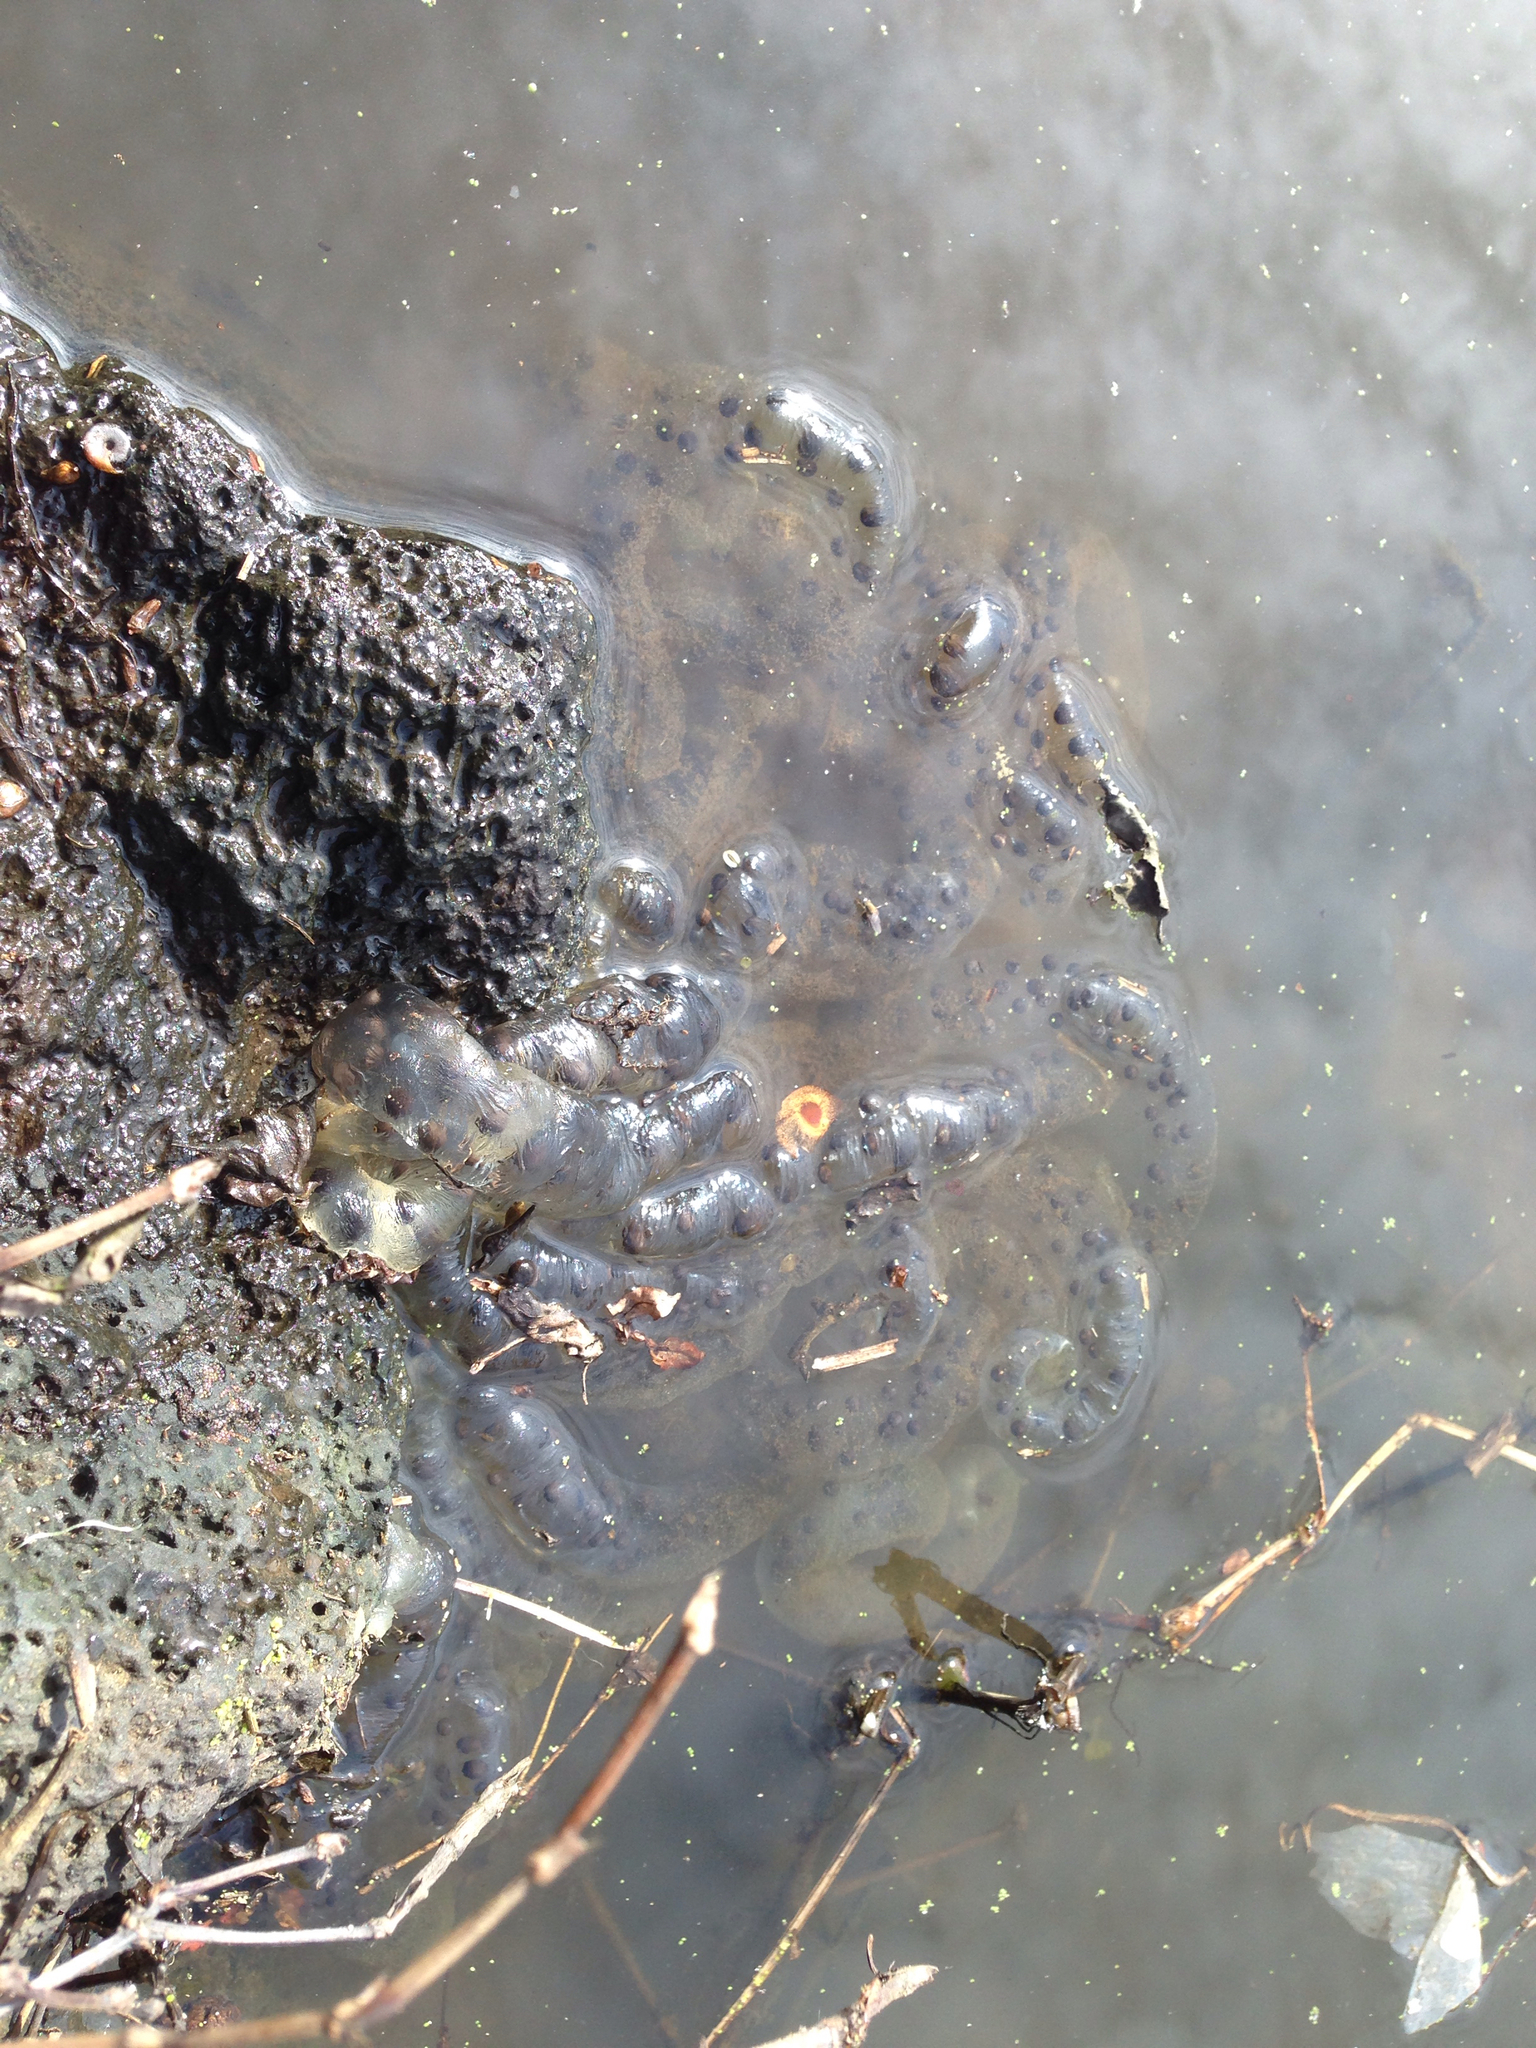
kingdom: Animalia
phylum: Chordata
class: Amphibia
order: Caudata
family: Hynobiidae
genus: Hynobius
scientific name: Hynobius quelpaertensis
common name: Cheju salamander
